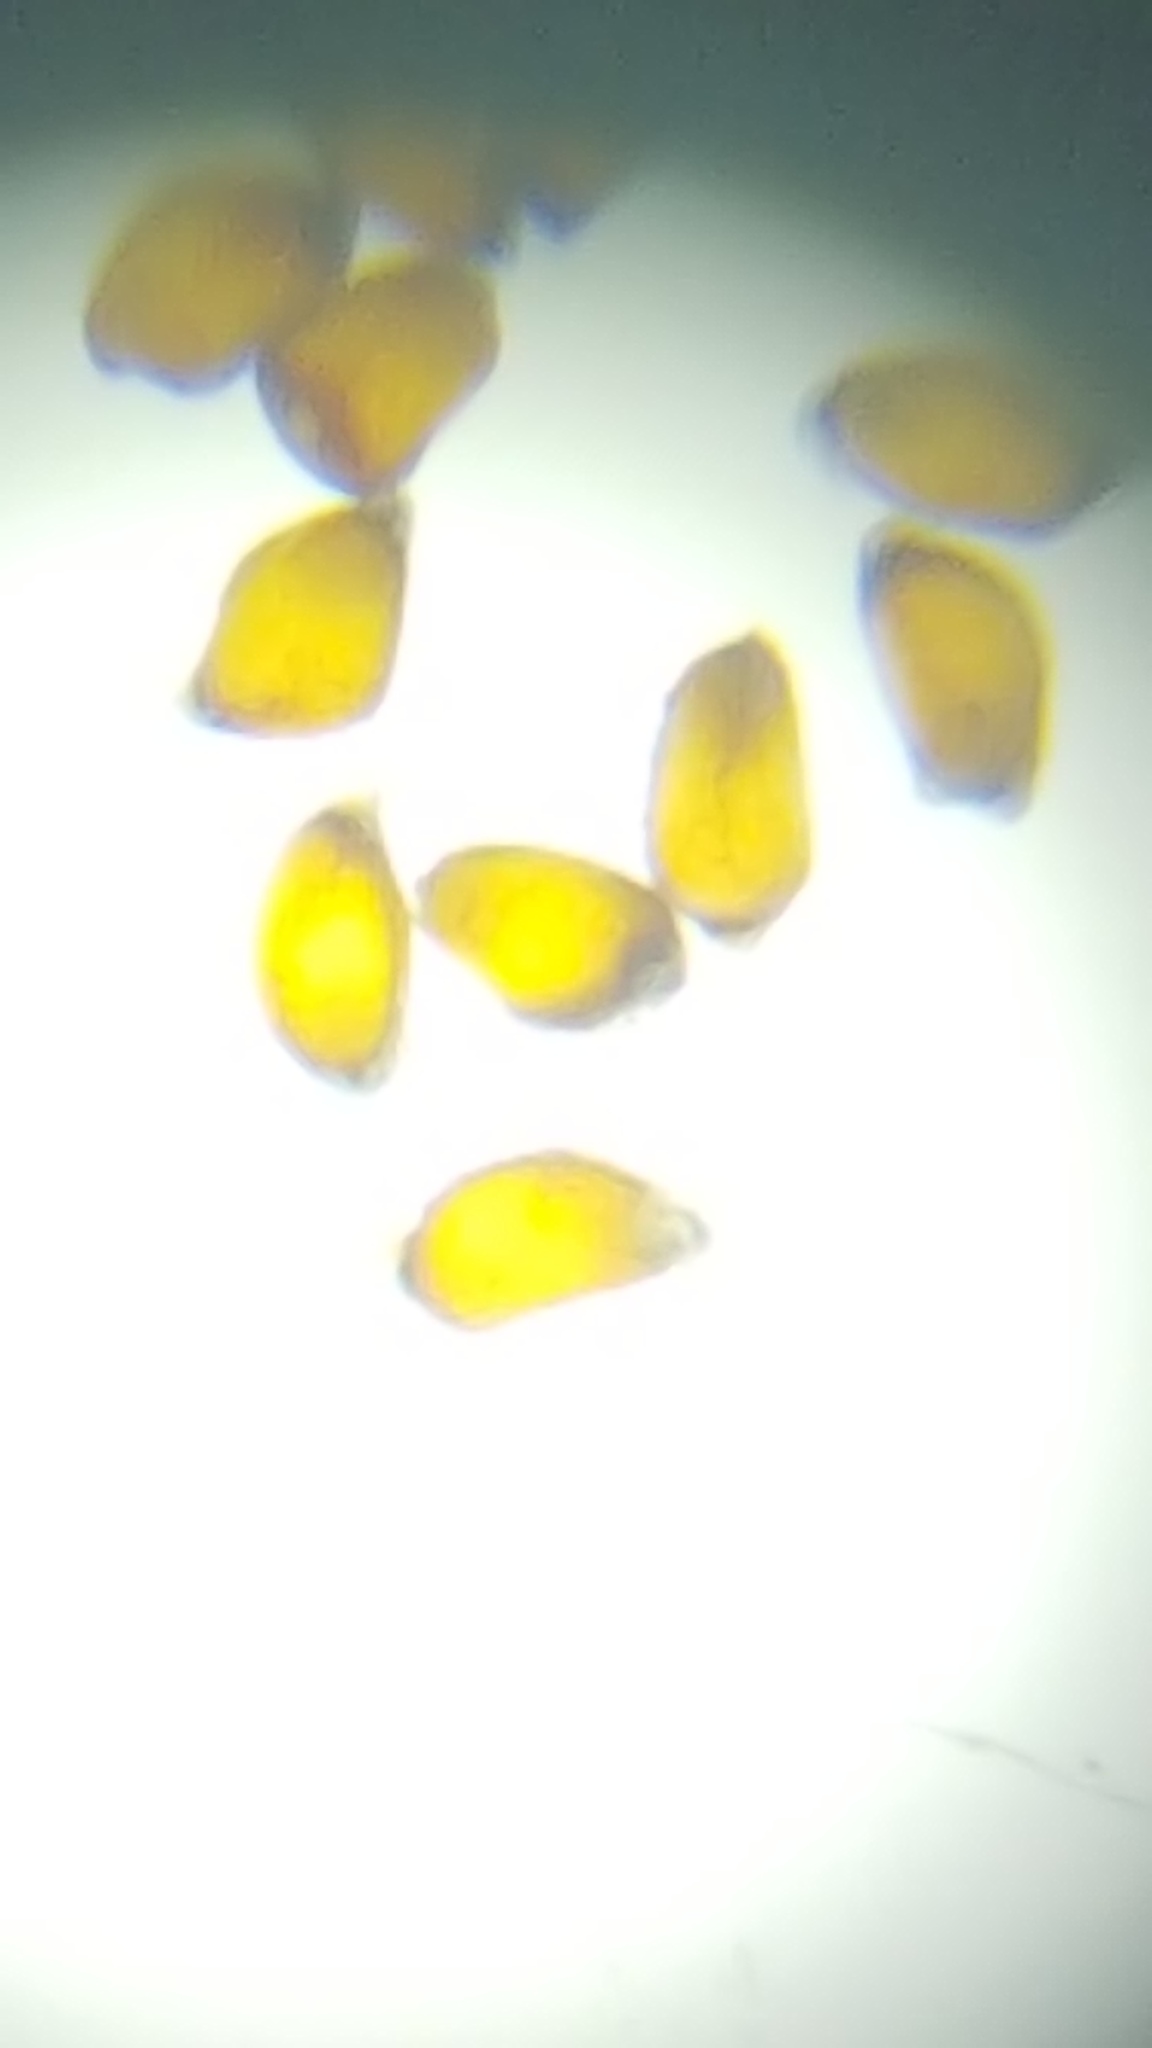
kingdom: Plantae
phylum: Tracheophyta
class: Liliopsida
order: Poales
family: Juncaceae
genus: Juncus
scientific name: Juncus filiformis
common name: Thread rush
